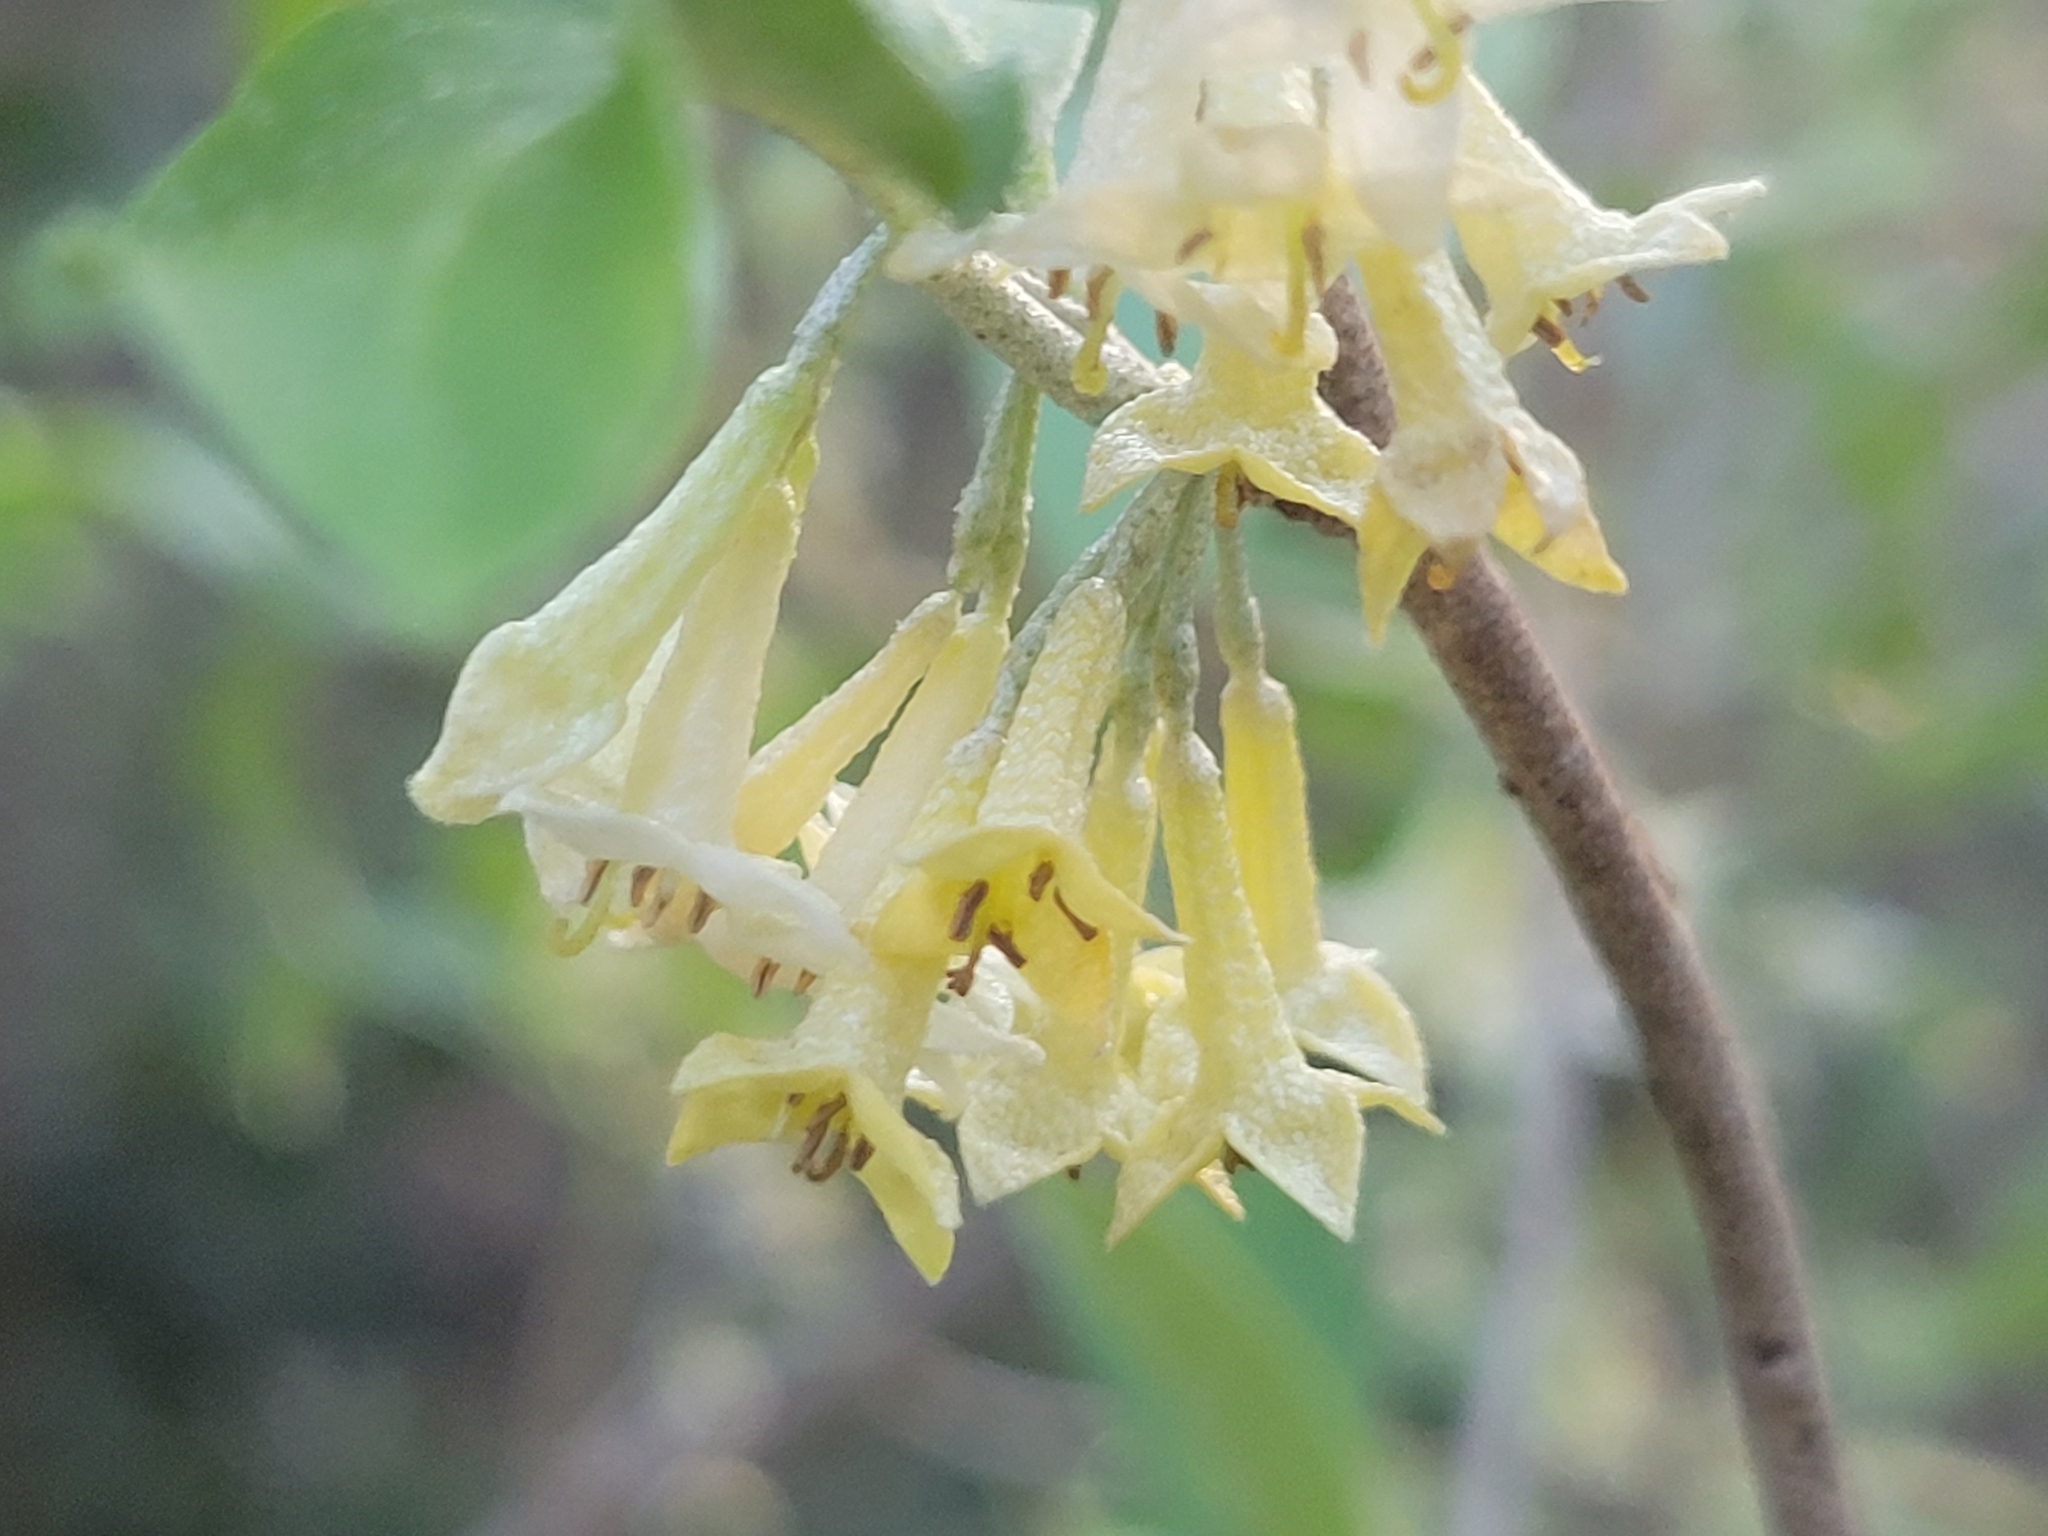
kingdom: Plantae
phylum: Tracheophyta
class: Magnoliopsida
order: Rosales
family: Elaeagnaceae
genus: Elaeagnus
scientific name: Elaeagnus umbellata
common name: Autumn olive
